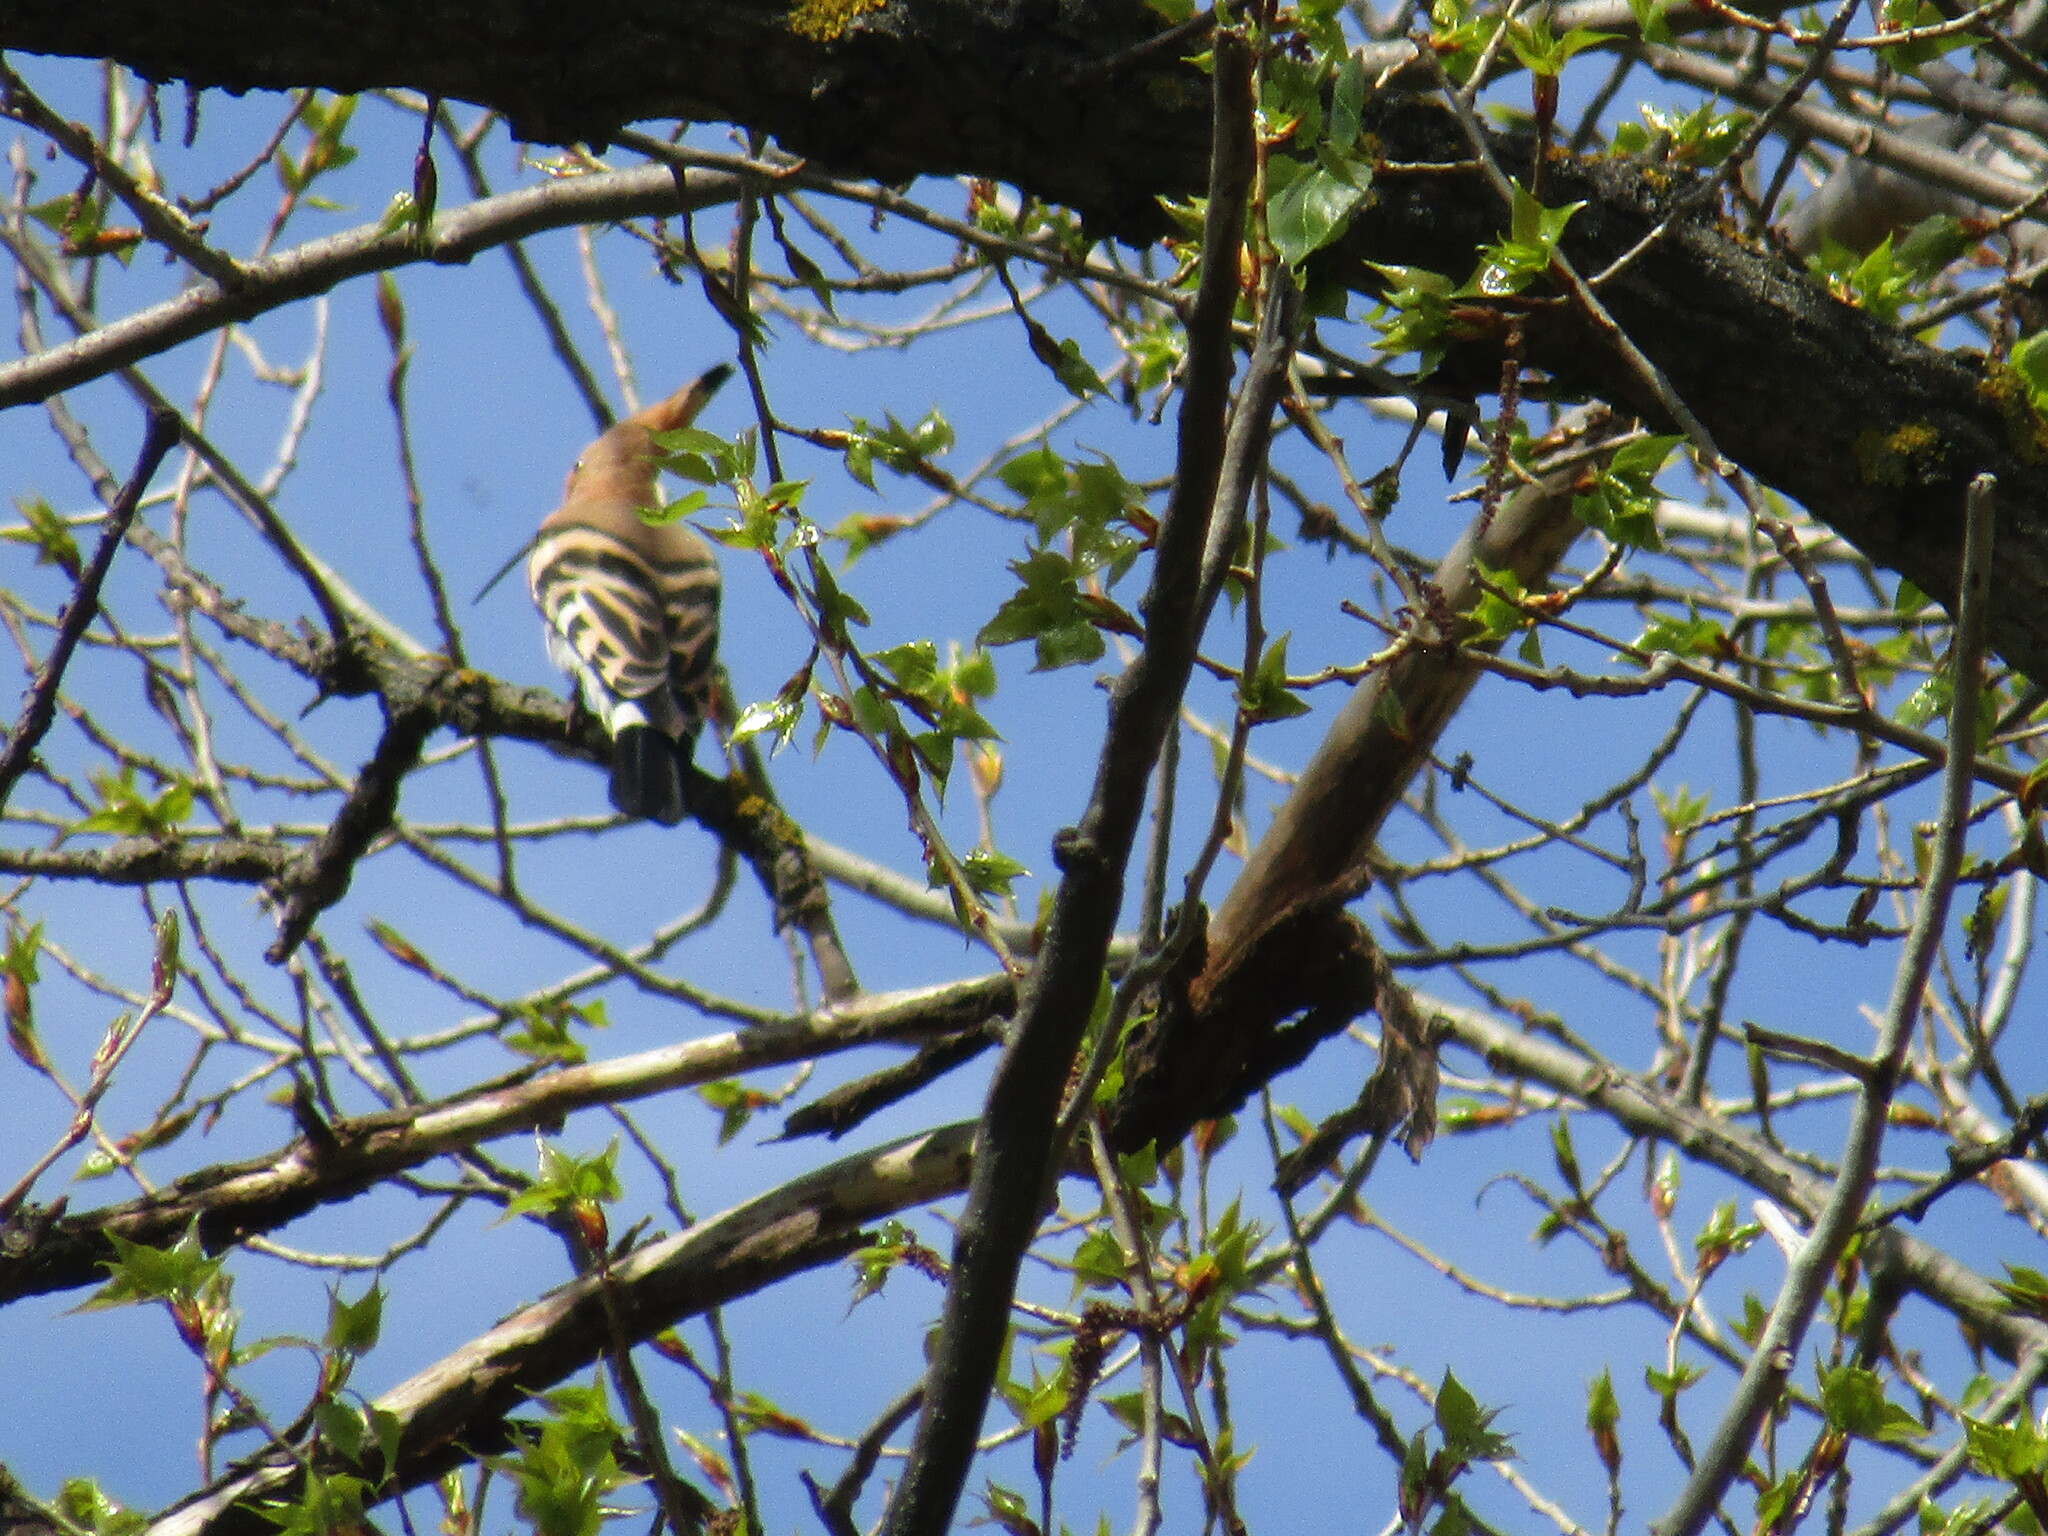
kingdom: Animalia
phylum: Chordata
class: Aves
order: Bucerotiformes
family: Upupidae
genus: Upupa
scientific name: Upupa epops
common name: Eurasian hoopoe
